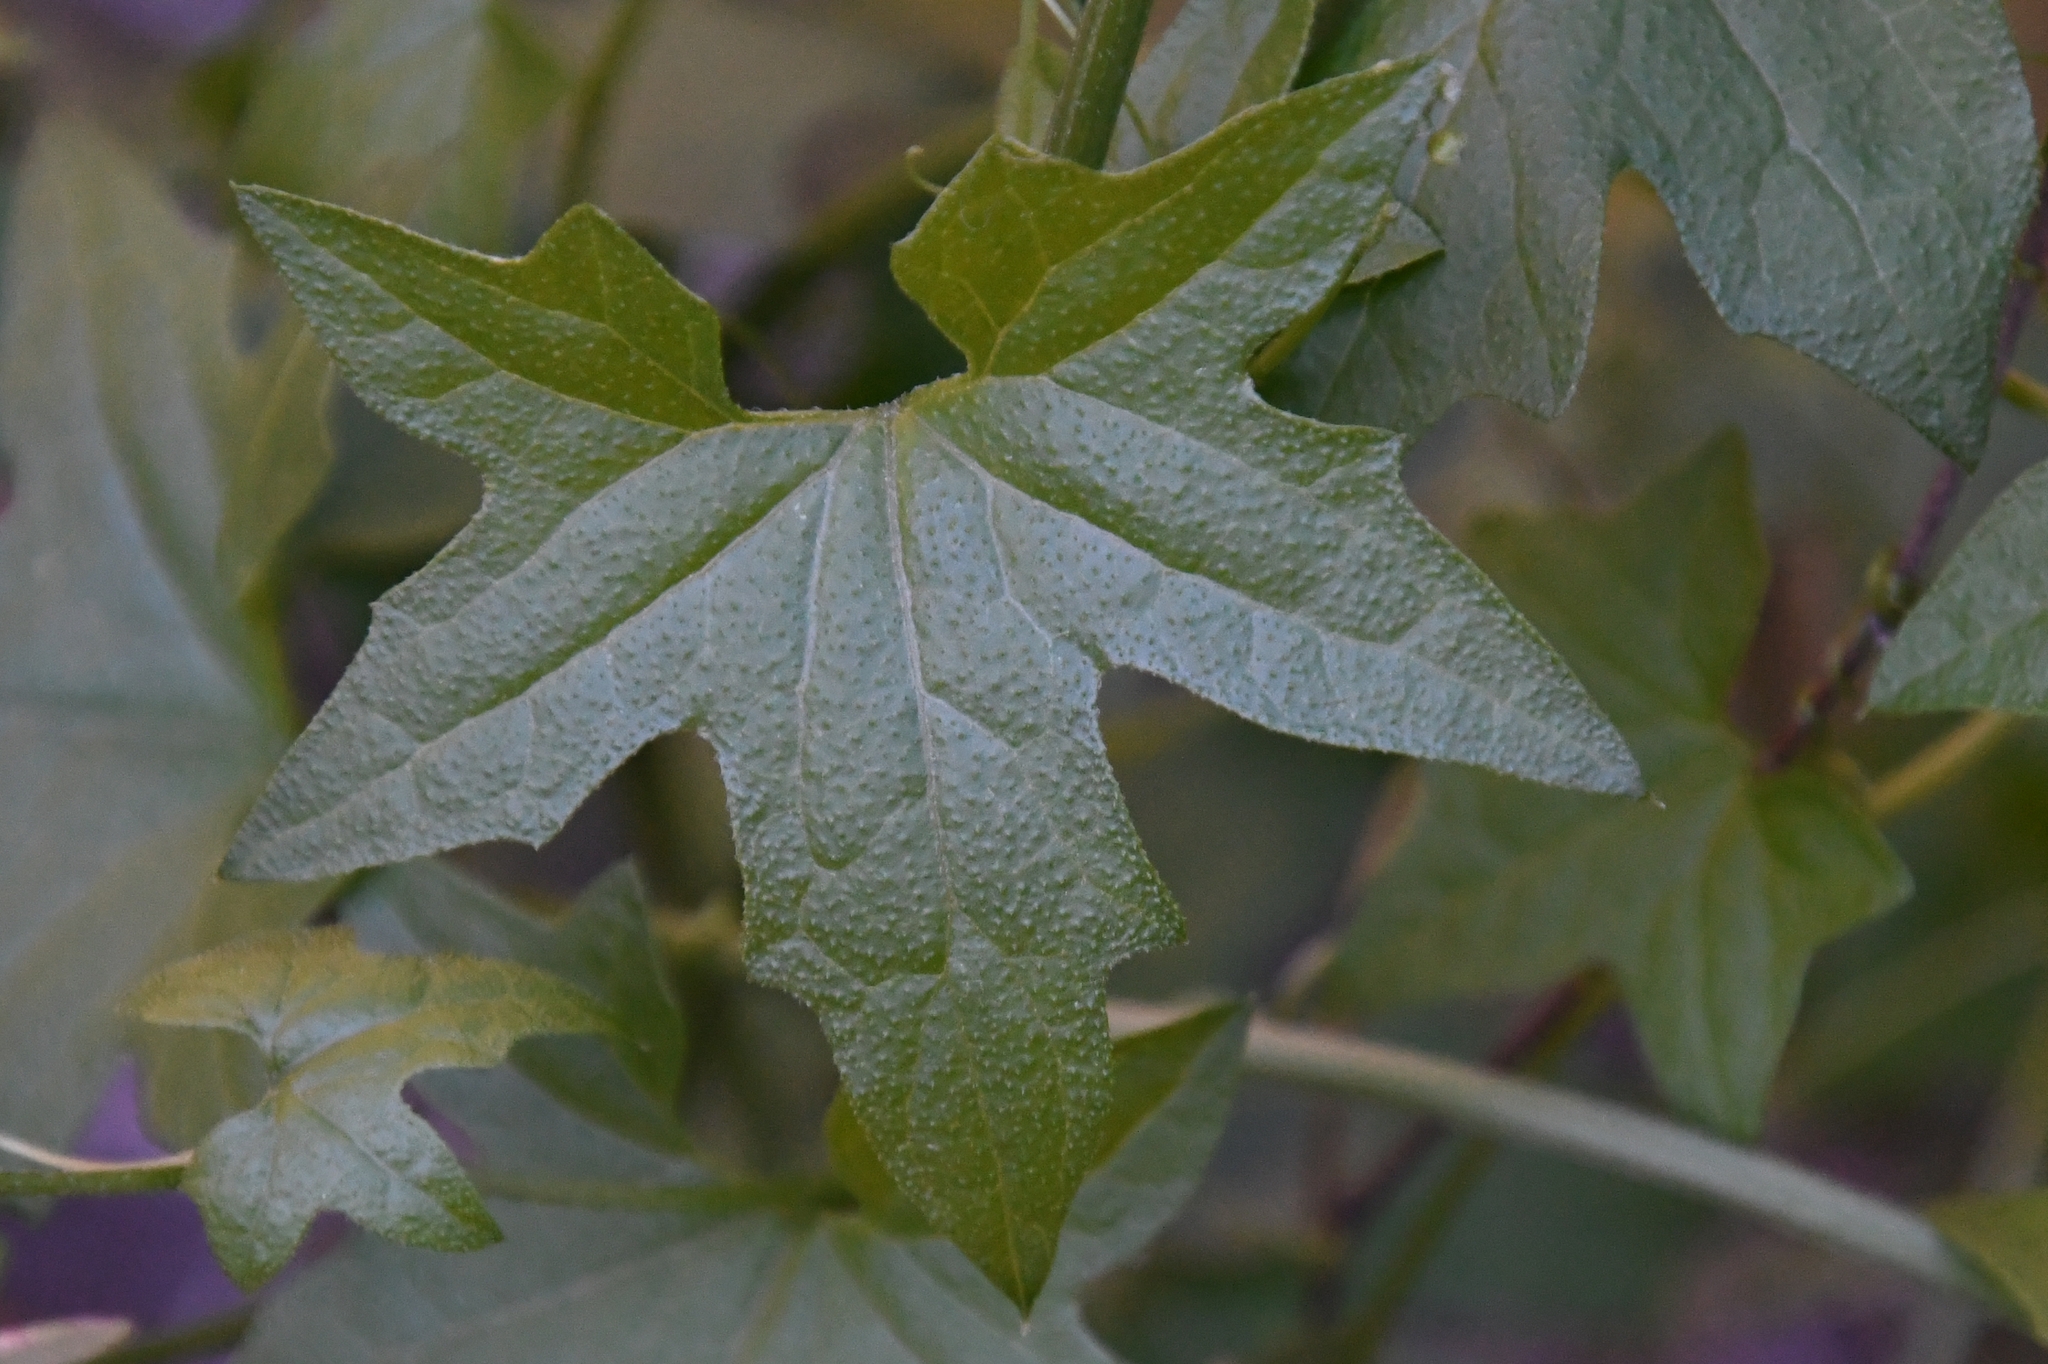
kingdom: Plantae
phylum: Tracheophyta
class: Magnoliopsida
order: Cucurbitales
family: Cucurbitaceae
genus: Marah
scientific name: Marah gilensis
